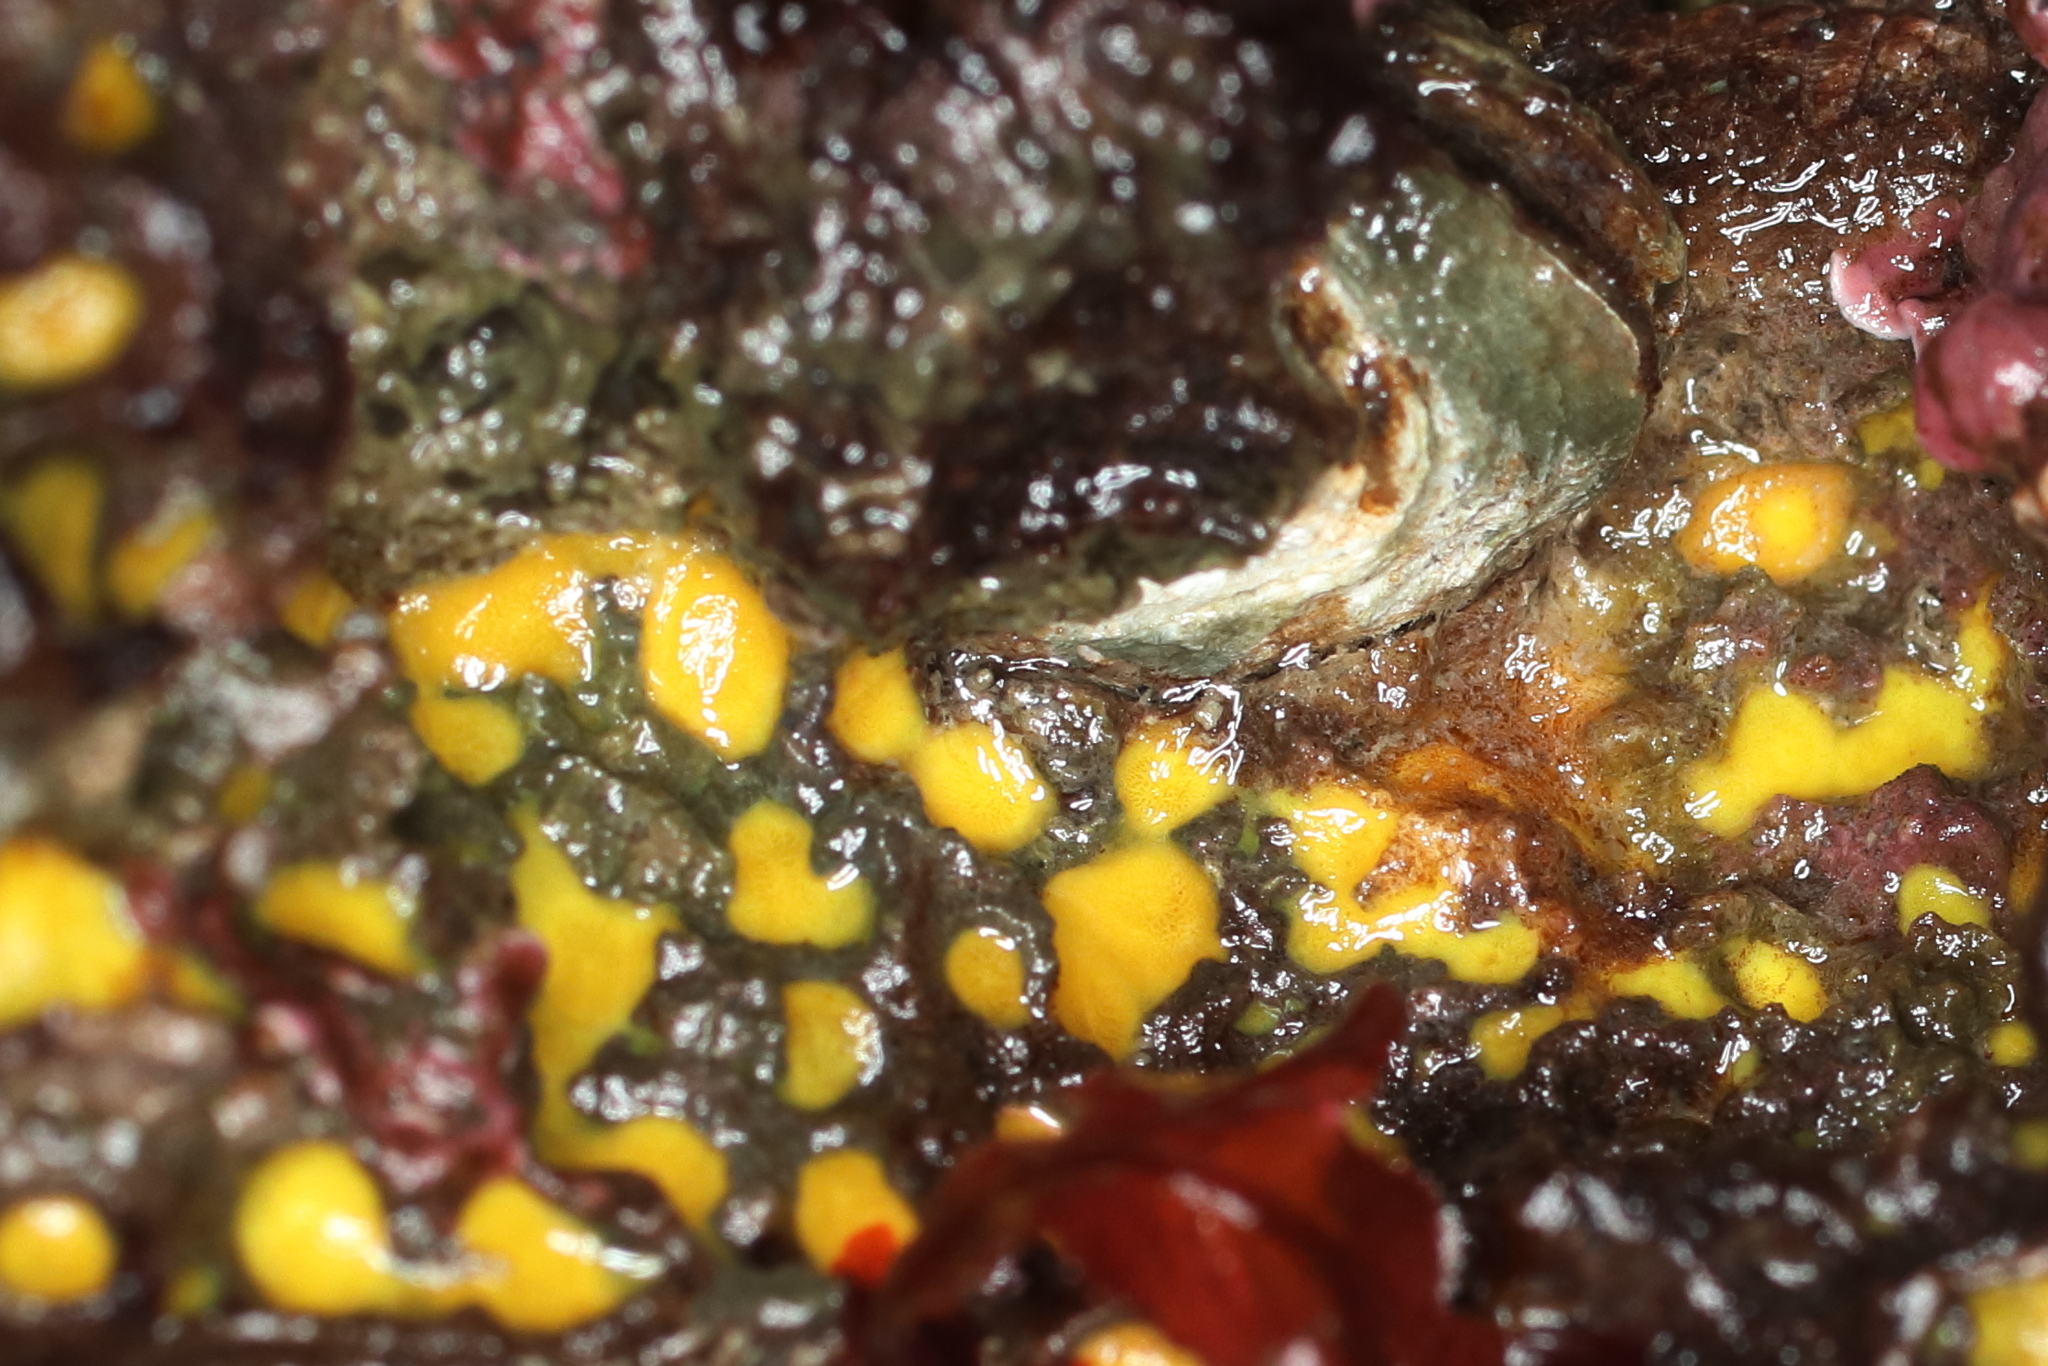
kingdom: Animalia
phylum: Porifera
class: Demospongiae
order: Clionaida
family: Clionaidae
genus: Cliona
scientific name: Cliona californiana
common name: California boring horny sponge
